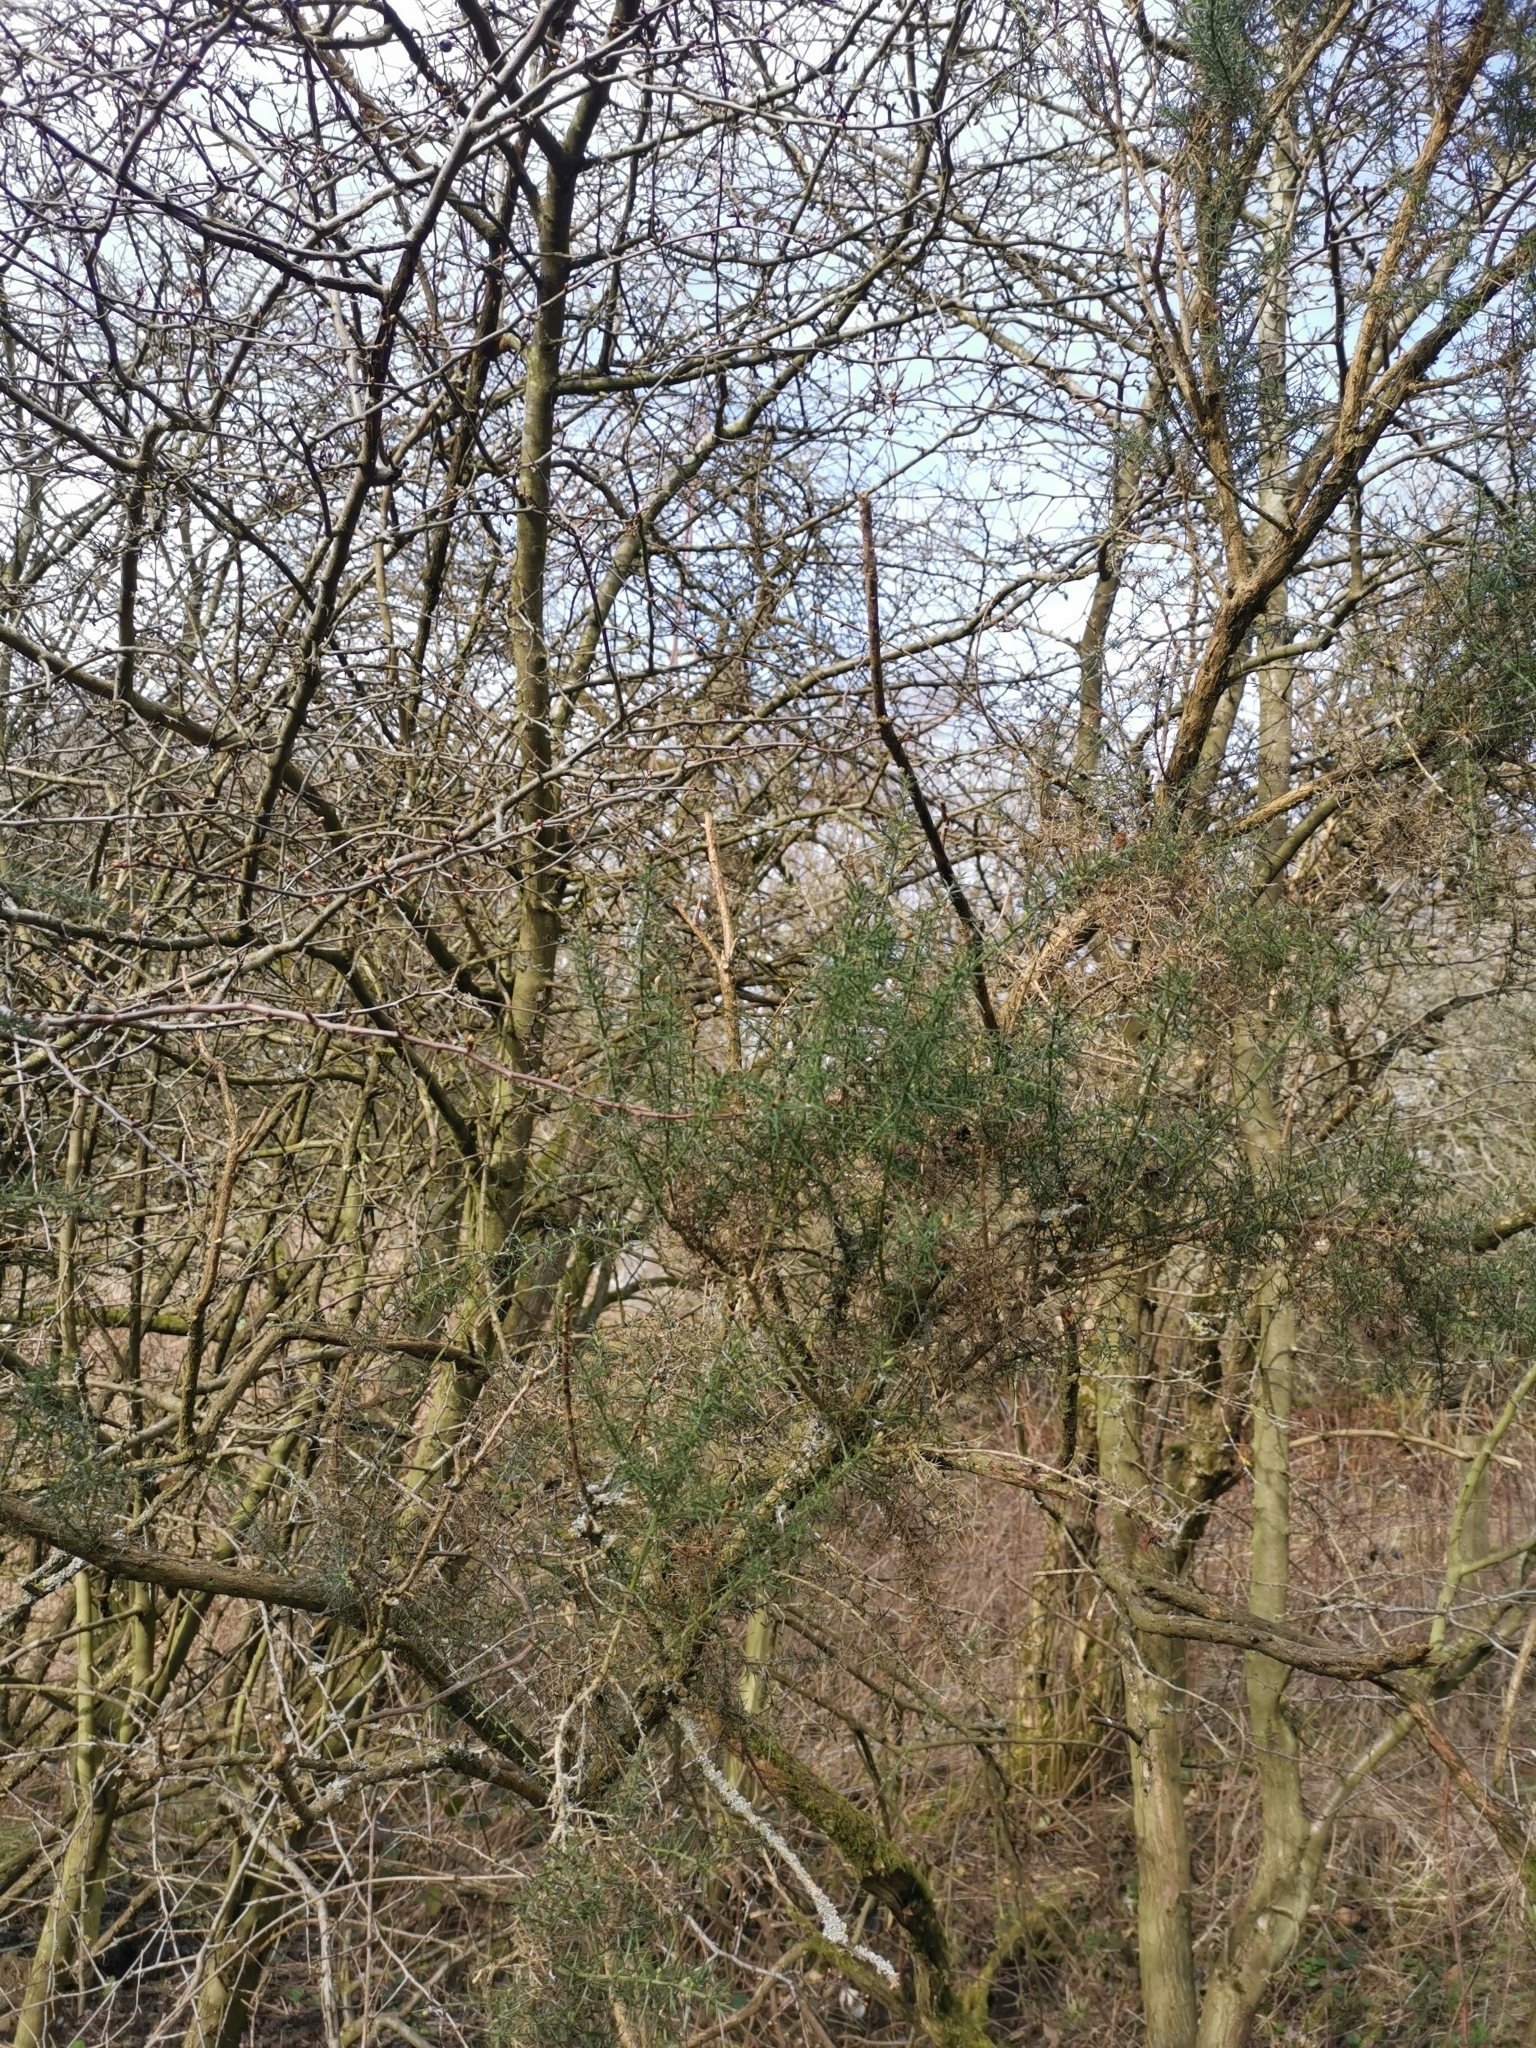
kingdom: Plantae
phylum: Tracheophyta
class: Magnoliopsida
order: Fabales
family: Fabaceae
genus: Ulex
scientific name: Ulex europaeus
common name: Common gorse
